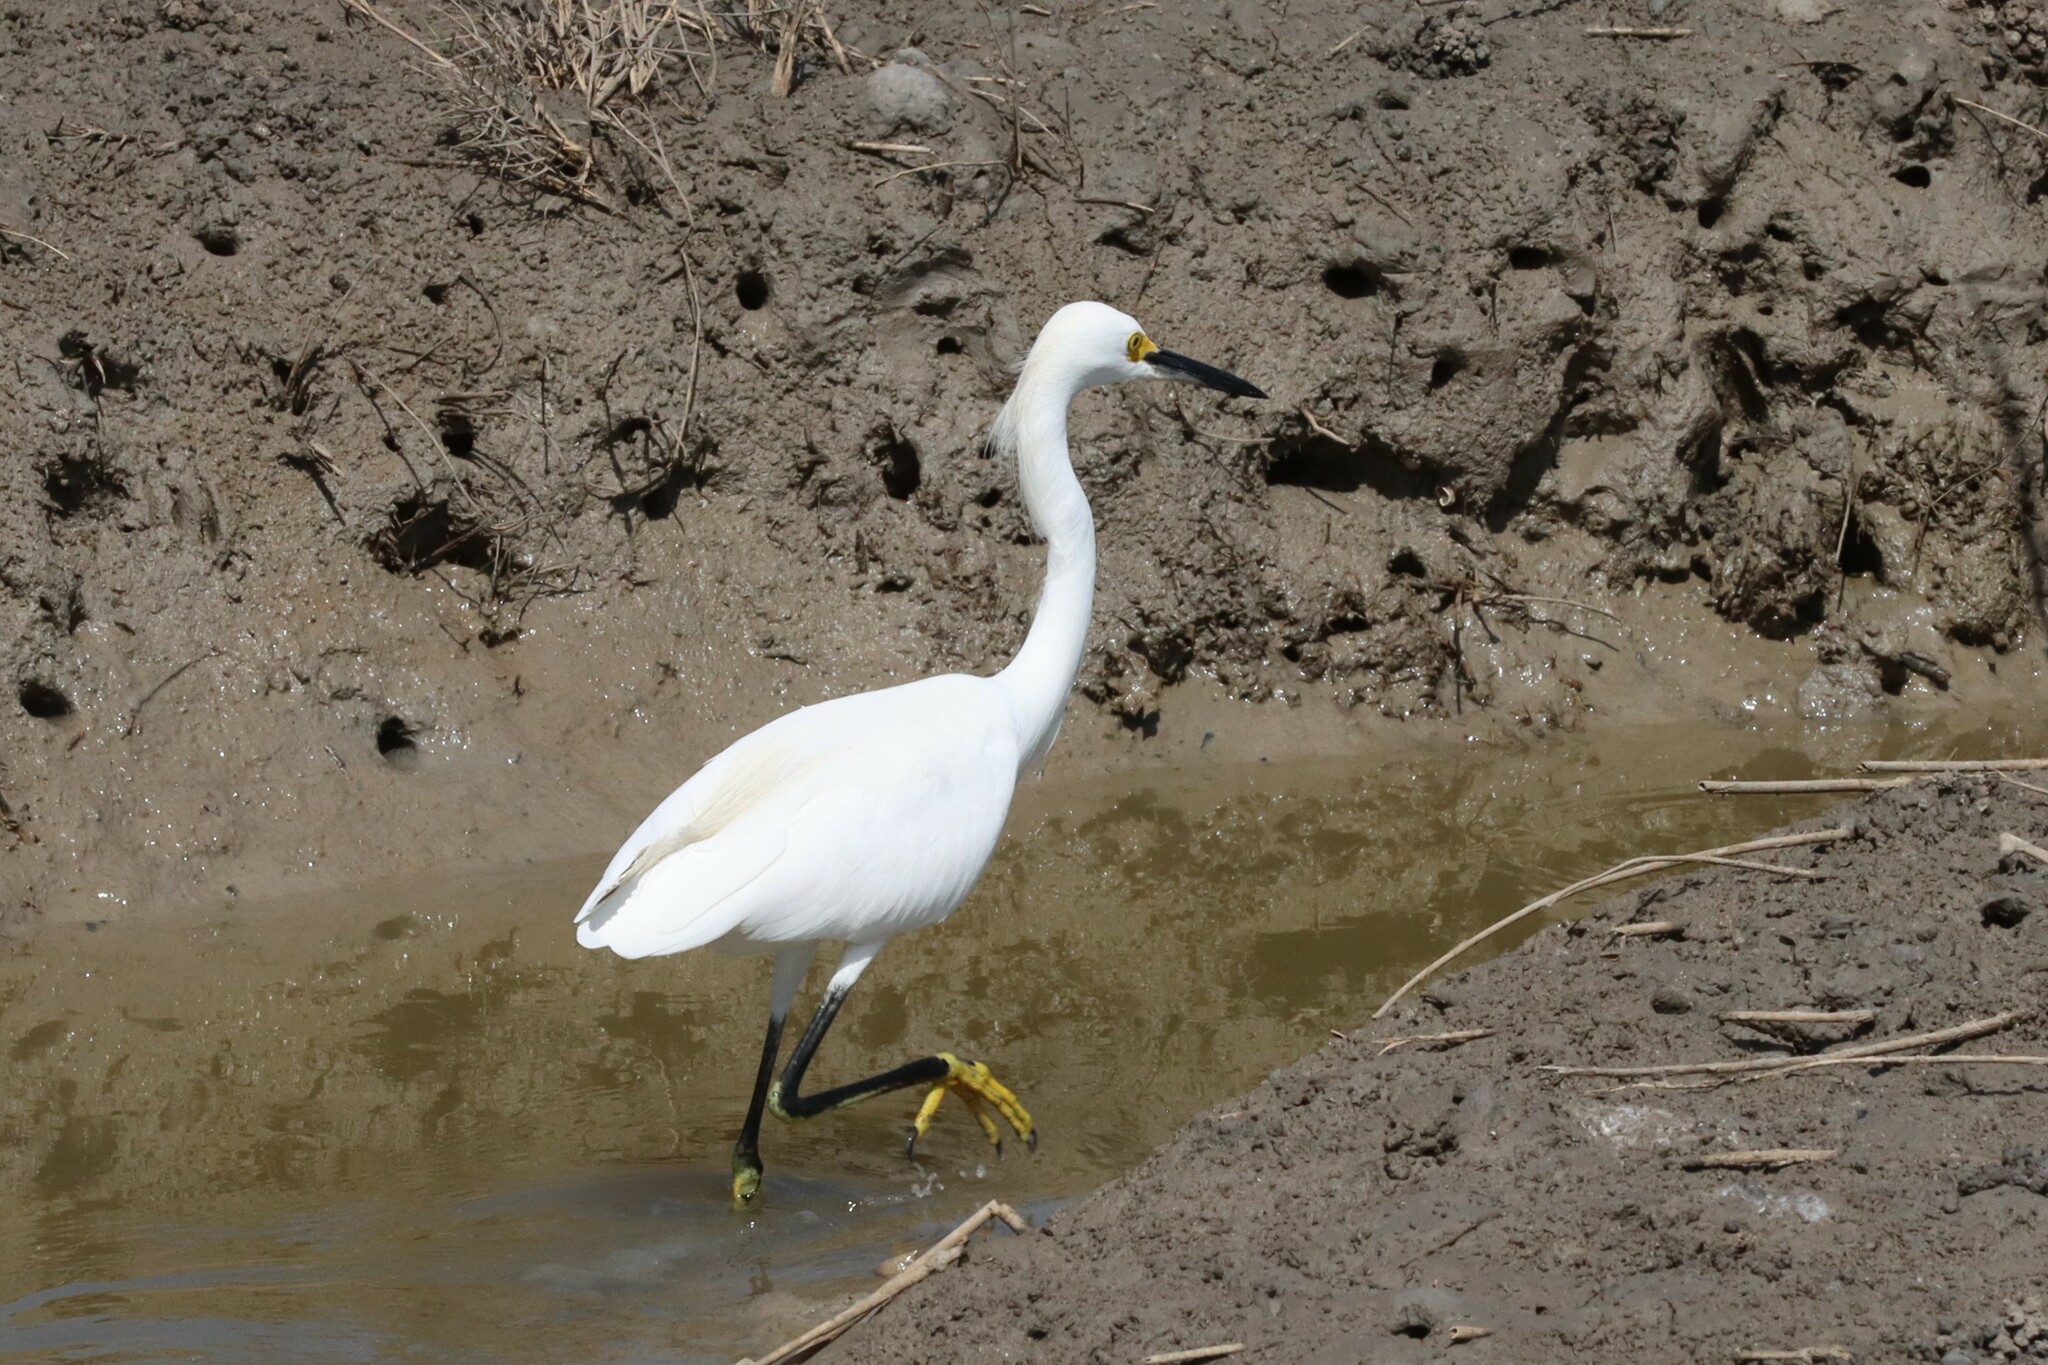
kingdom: Animalia
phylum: Chordata
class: Aves
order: Pelecaniformes
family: Ardeidae
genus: Egretta
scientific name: Egretta thula
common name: Snowy egret
